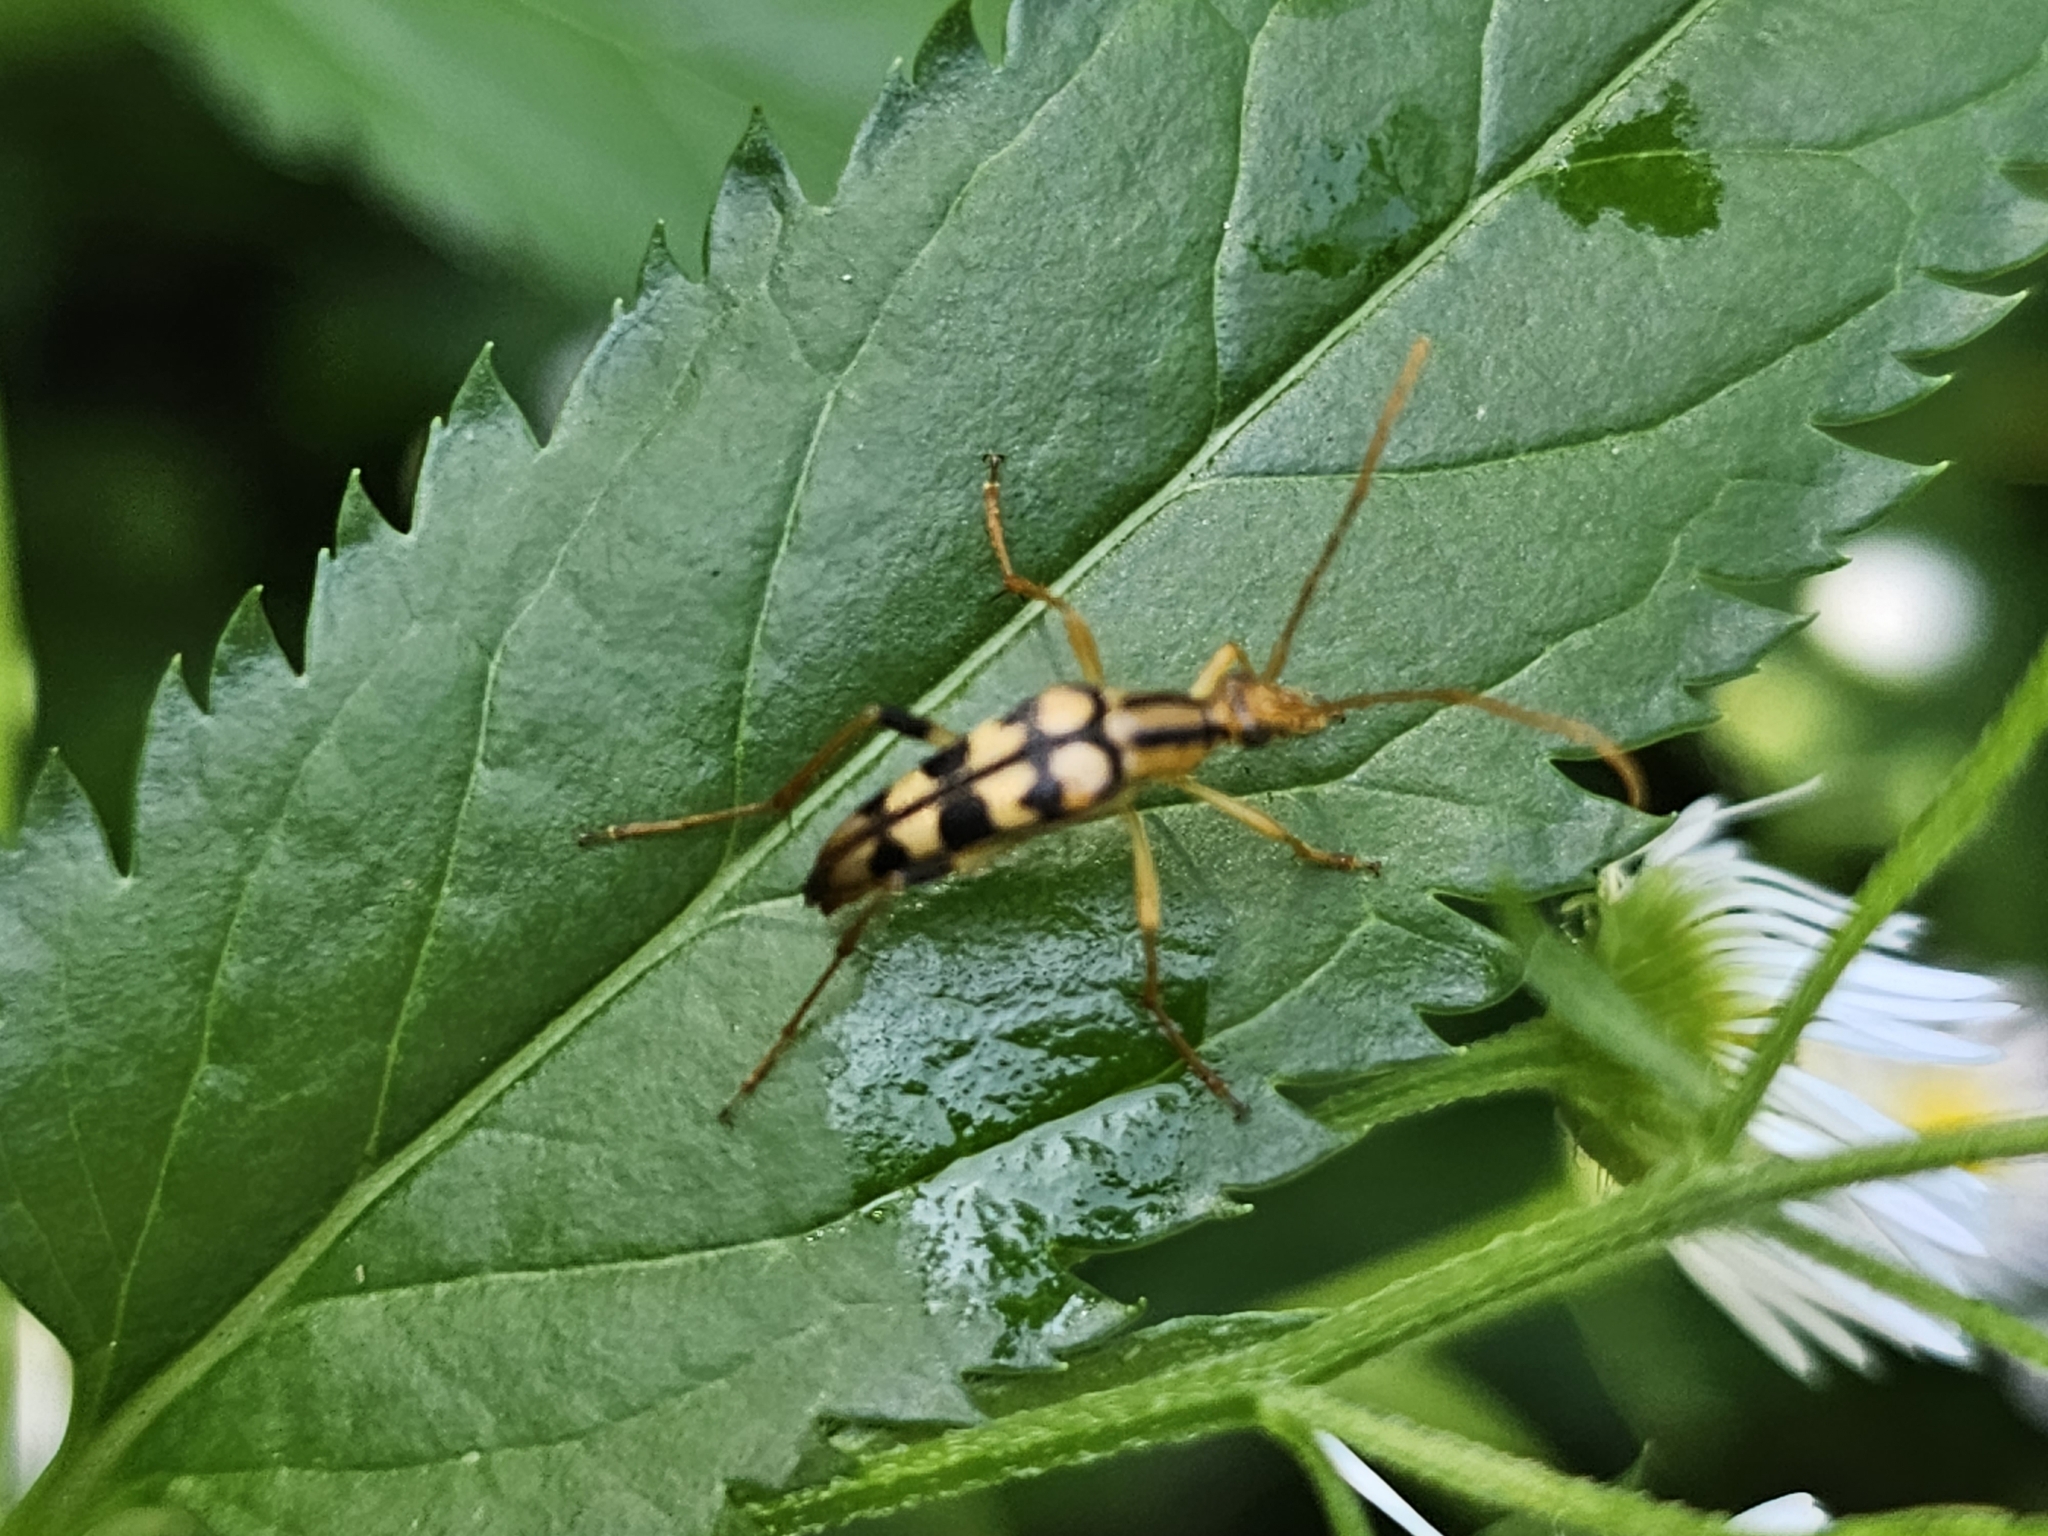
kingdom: Animalia
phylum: Arthropoda
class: Insecta
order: Coleoptera
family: Cerambycidae
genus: Strangalia
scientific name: Strangalia luteicornis
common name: Yellow-horned flower longhorn beetle
